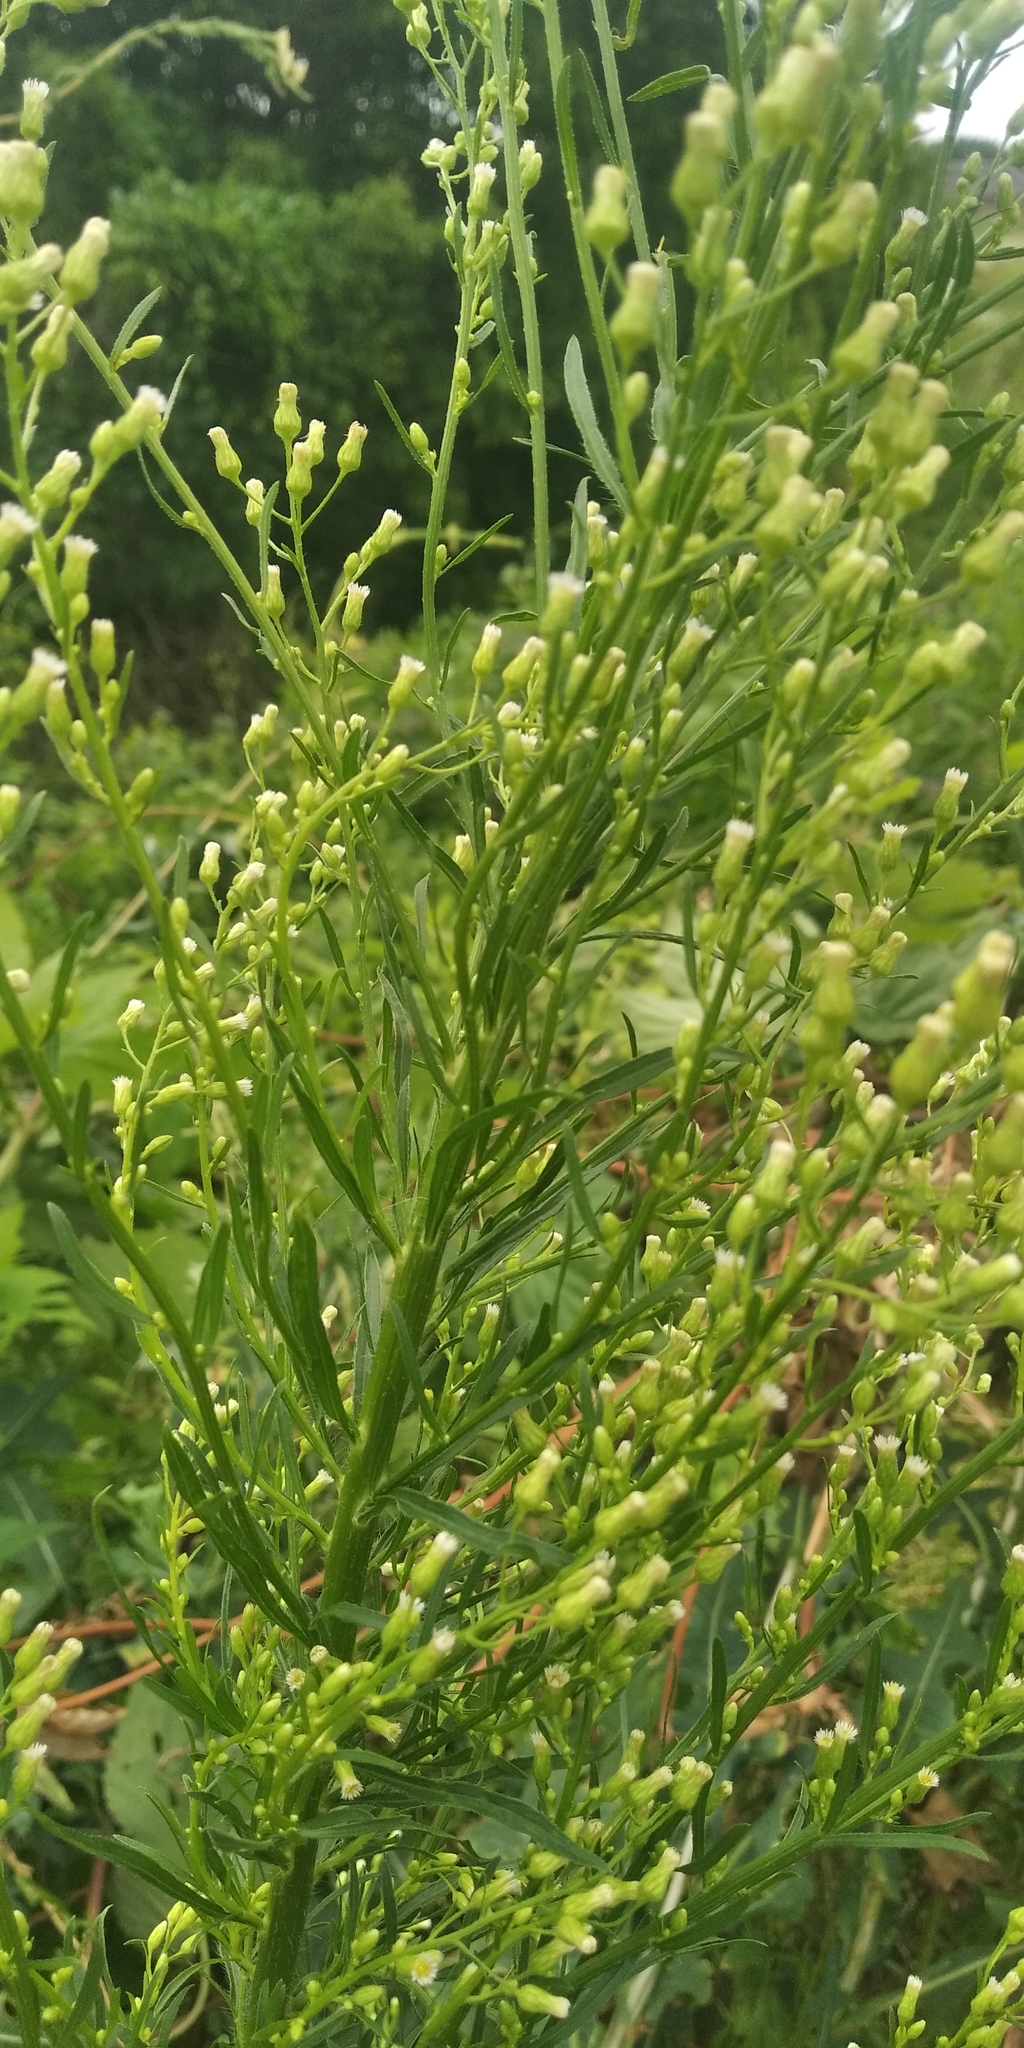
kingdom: Plantae
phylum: Tracheophyta
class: Magnoliopsida
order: Asterales
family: Asteraceae
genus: Erigeron
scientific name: Erigeron canadensis
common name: Canadian fleabane
